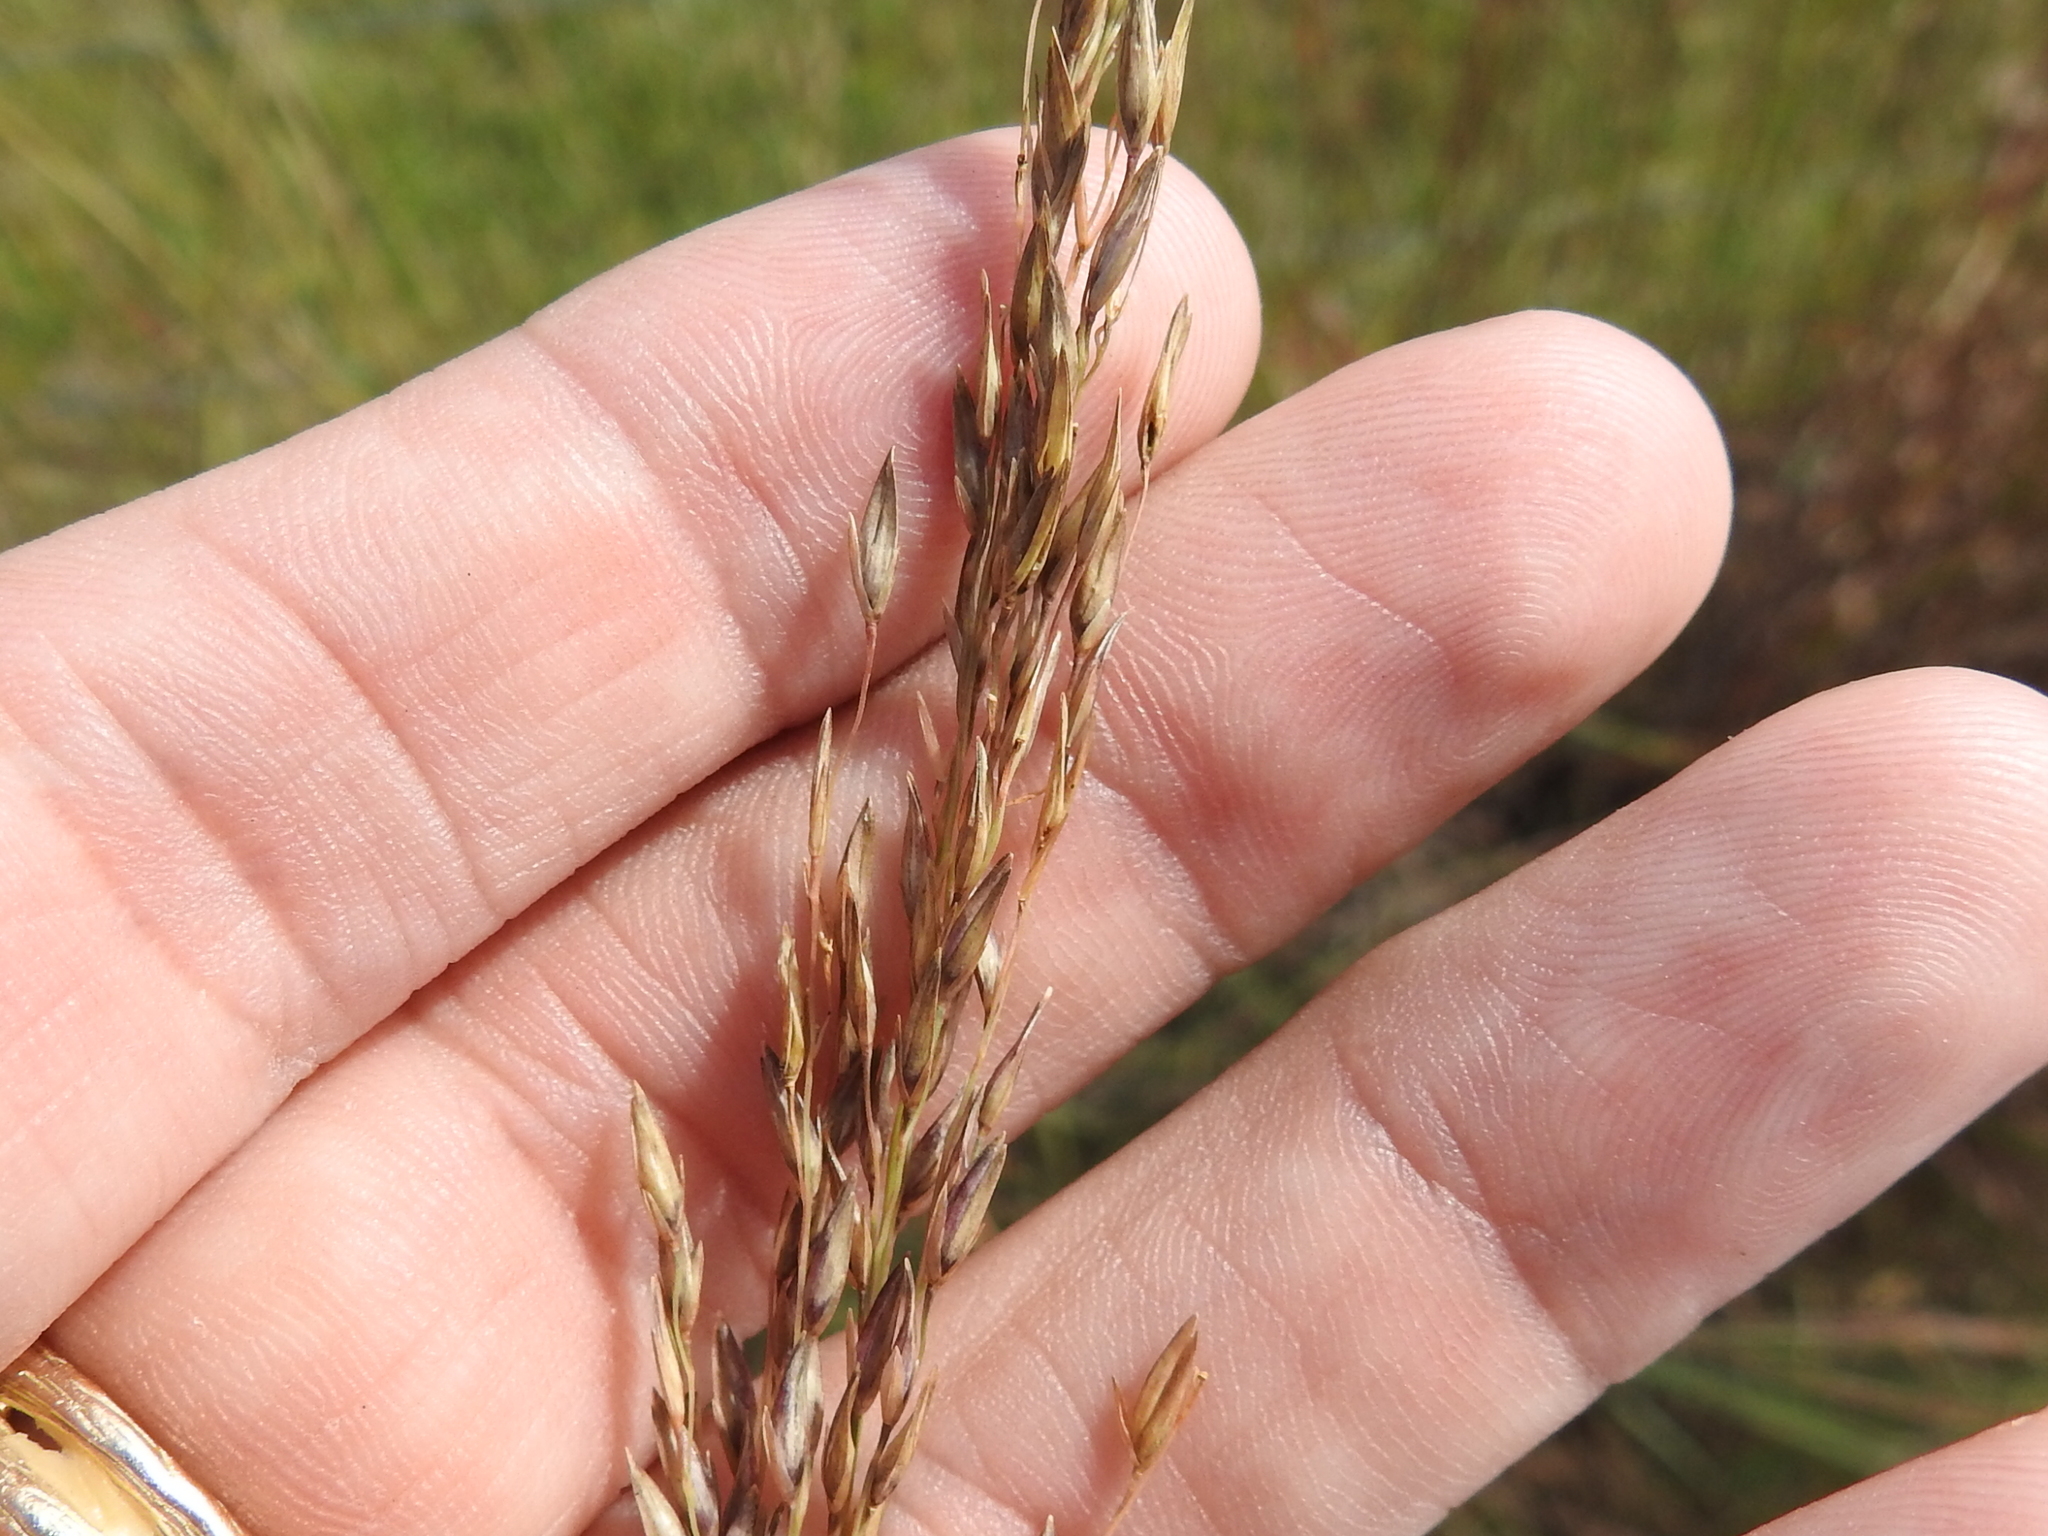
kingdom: Plantae
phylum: Tracheophyta
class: Liliopsida
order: Poales
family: Poaceae
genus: Sporobolus
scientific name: Sporobolus compositus
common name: Rough dropseed
